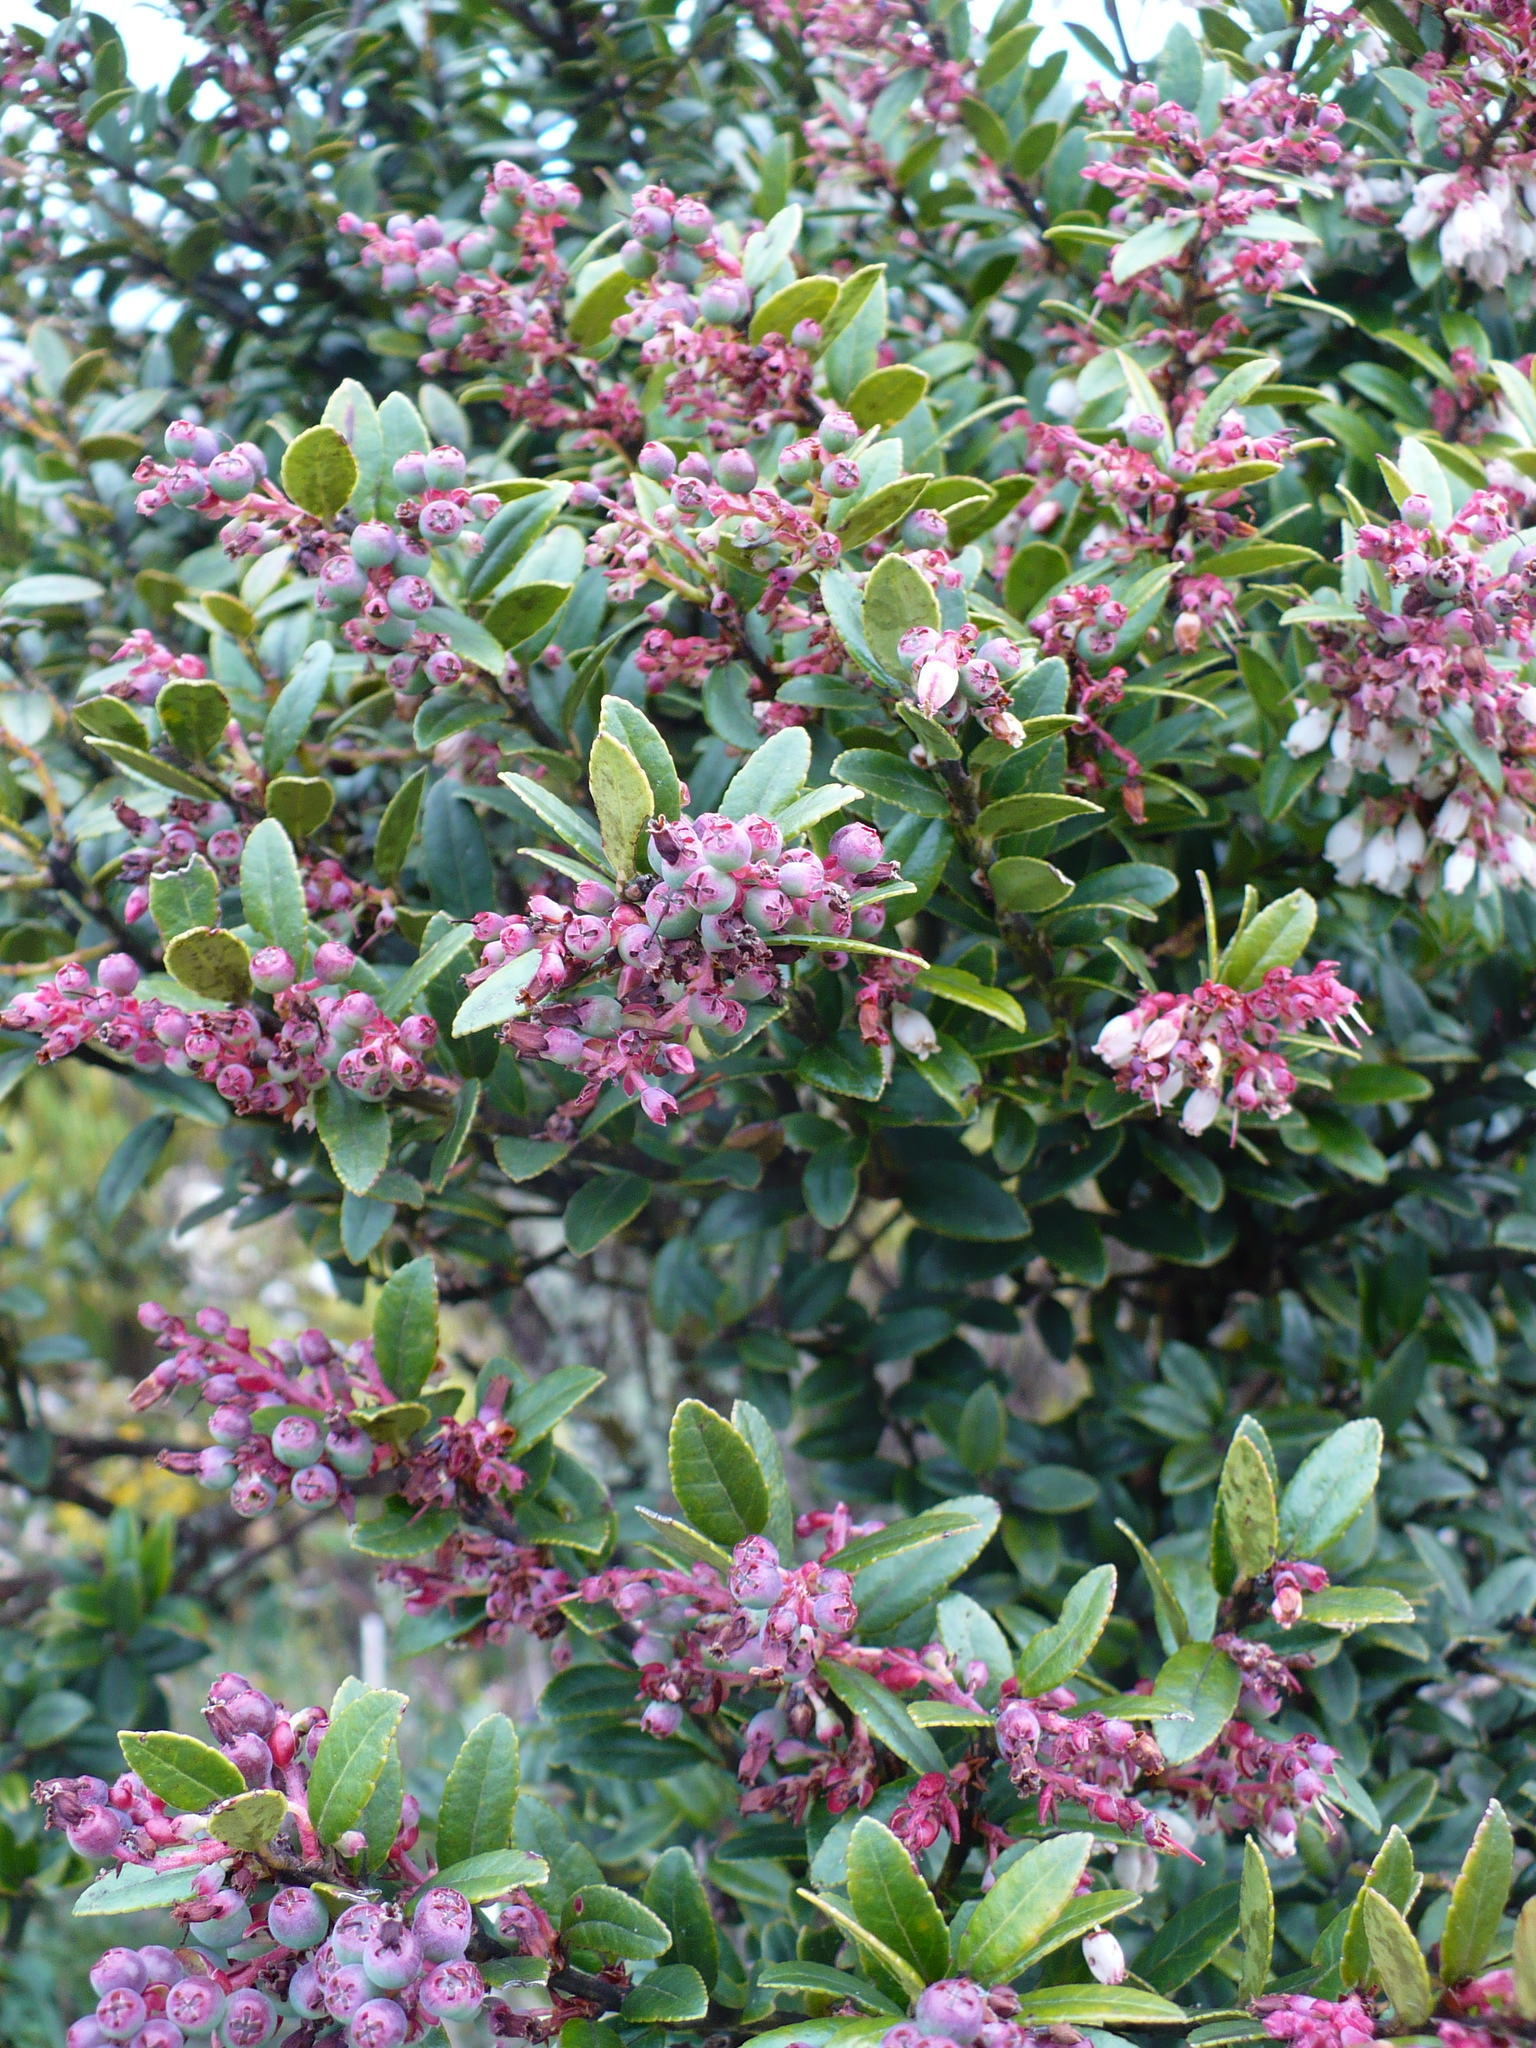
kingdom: Plantae
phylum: Tracheophyta
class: Magnoliopsida
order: Ericales
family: Ericaceae
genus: Vaccinium
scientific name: Vaccinium consanguineum
